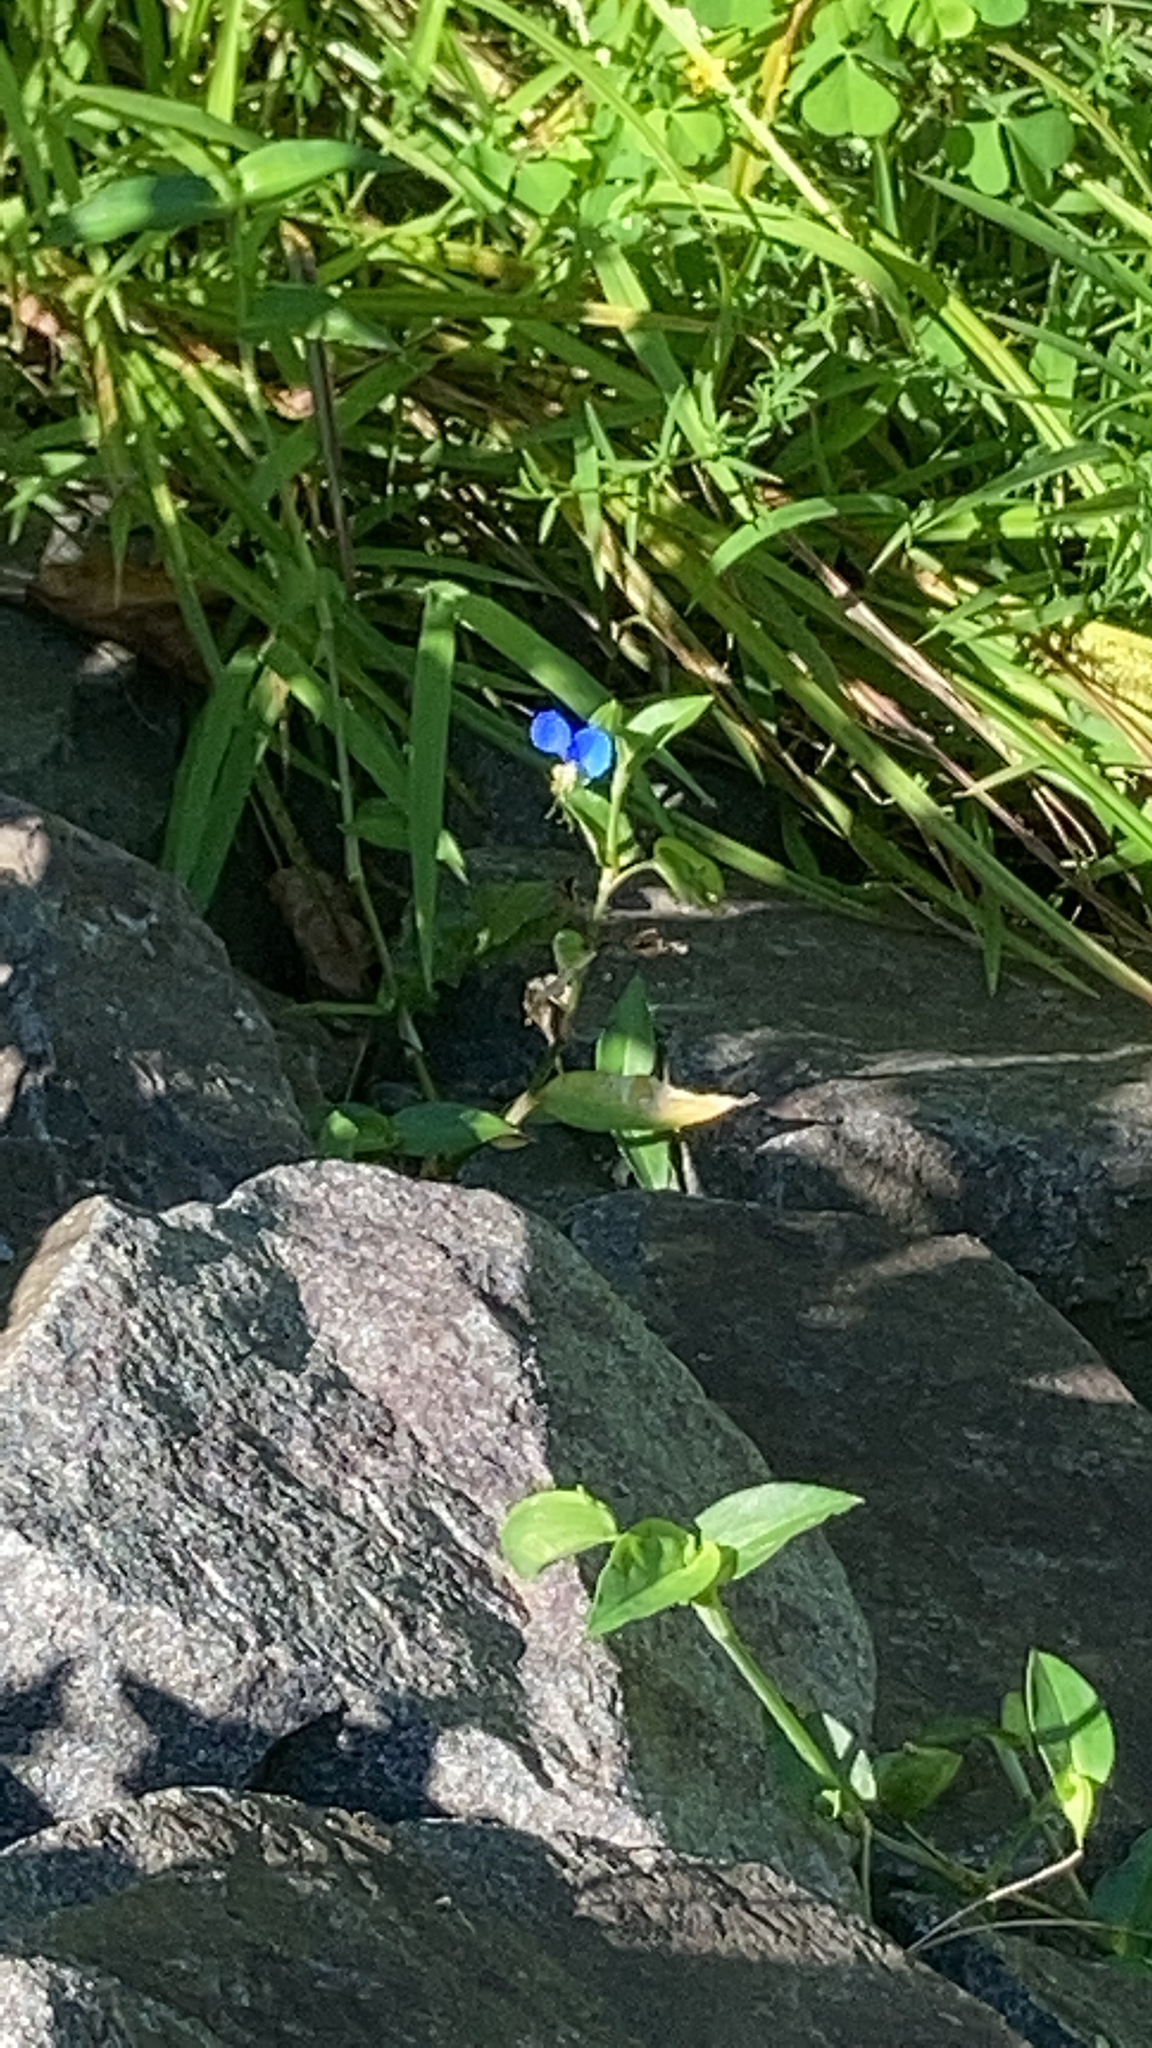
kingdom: Plantae
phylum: Tracheophyta
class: Liliopsida
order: Commelinales
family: Commelinaceae
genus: Commelina
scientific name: Commelina communis
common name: Asiatic dayflower
